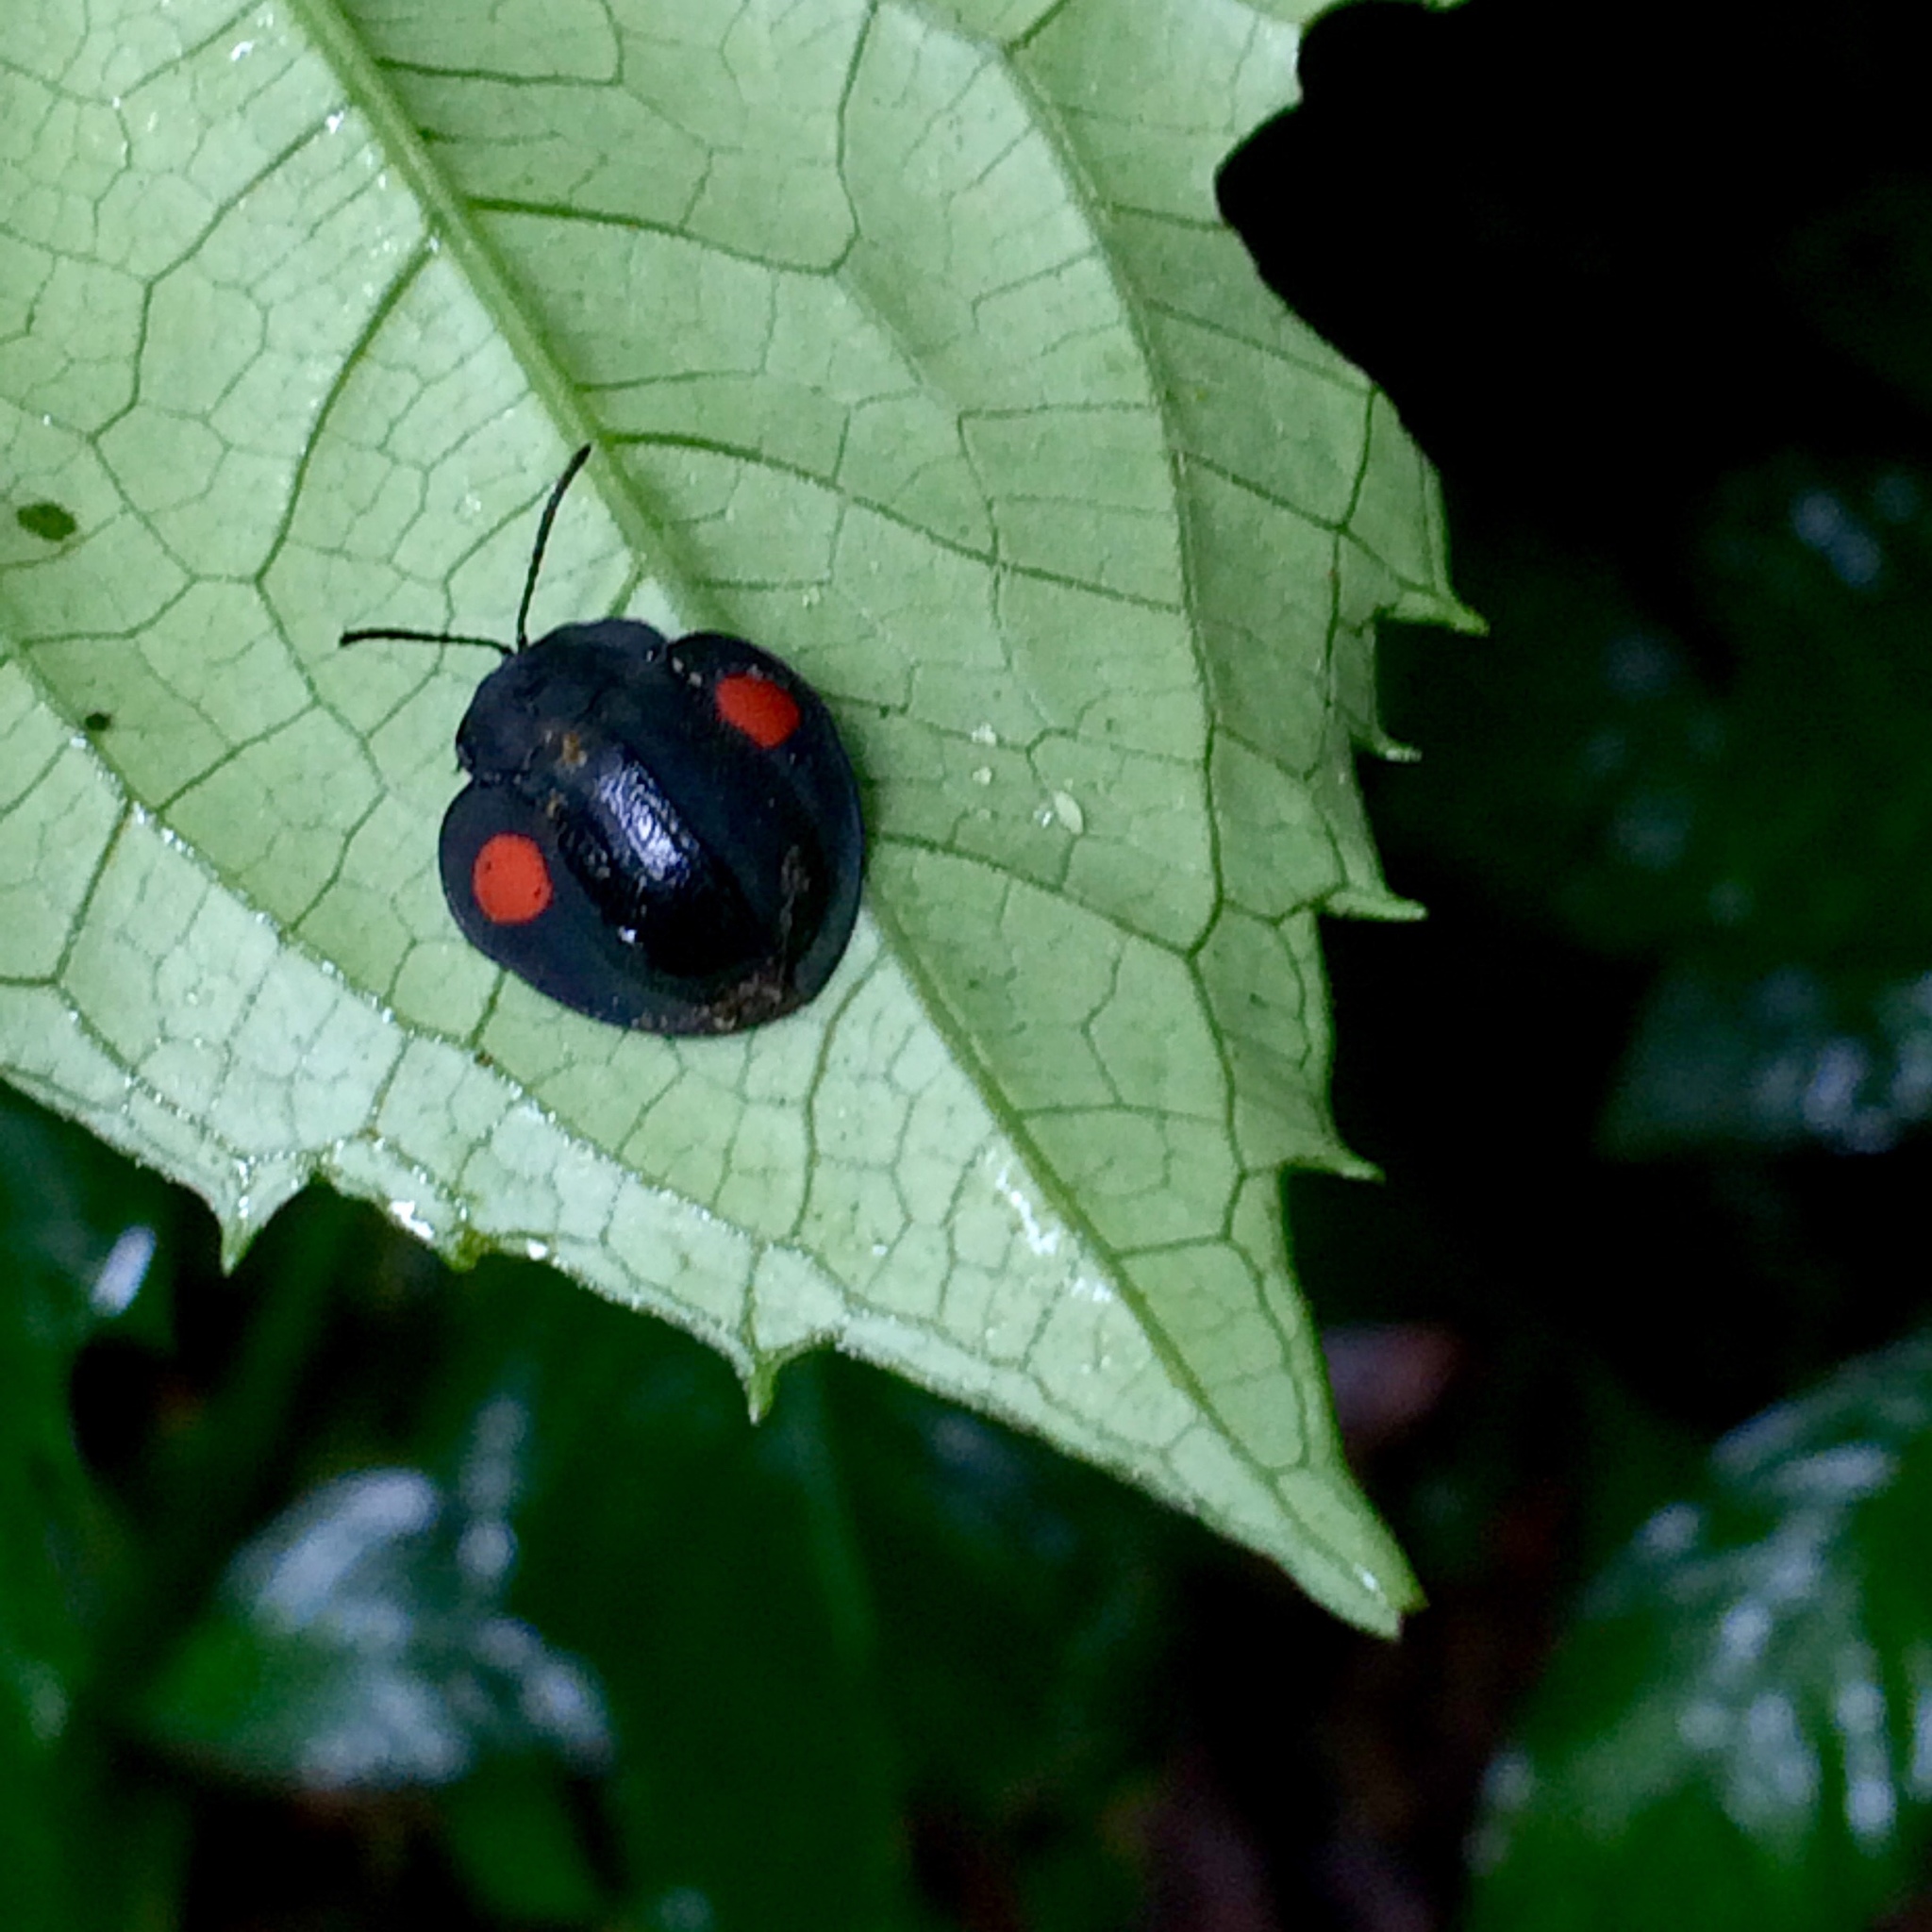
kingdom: Animalia
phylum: Arthropoda
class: Insecta
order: Coleoptera
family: Chrysomelidae
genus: Stolas
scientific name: Stolas cucullata
